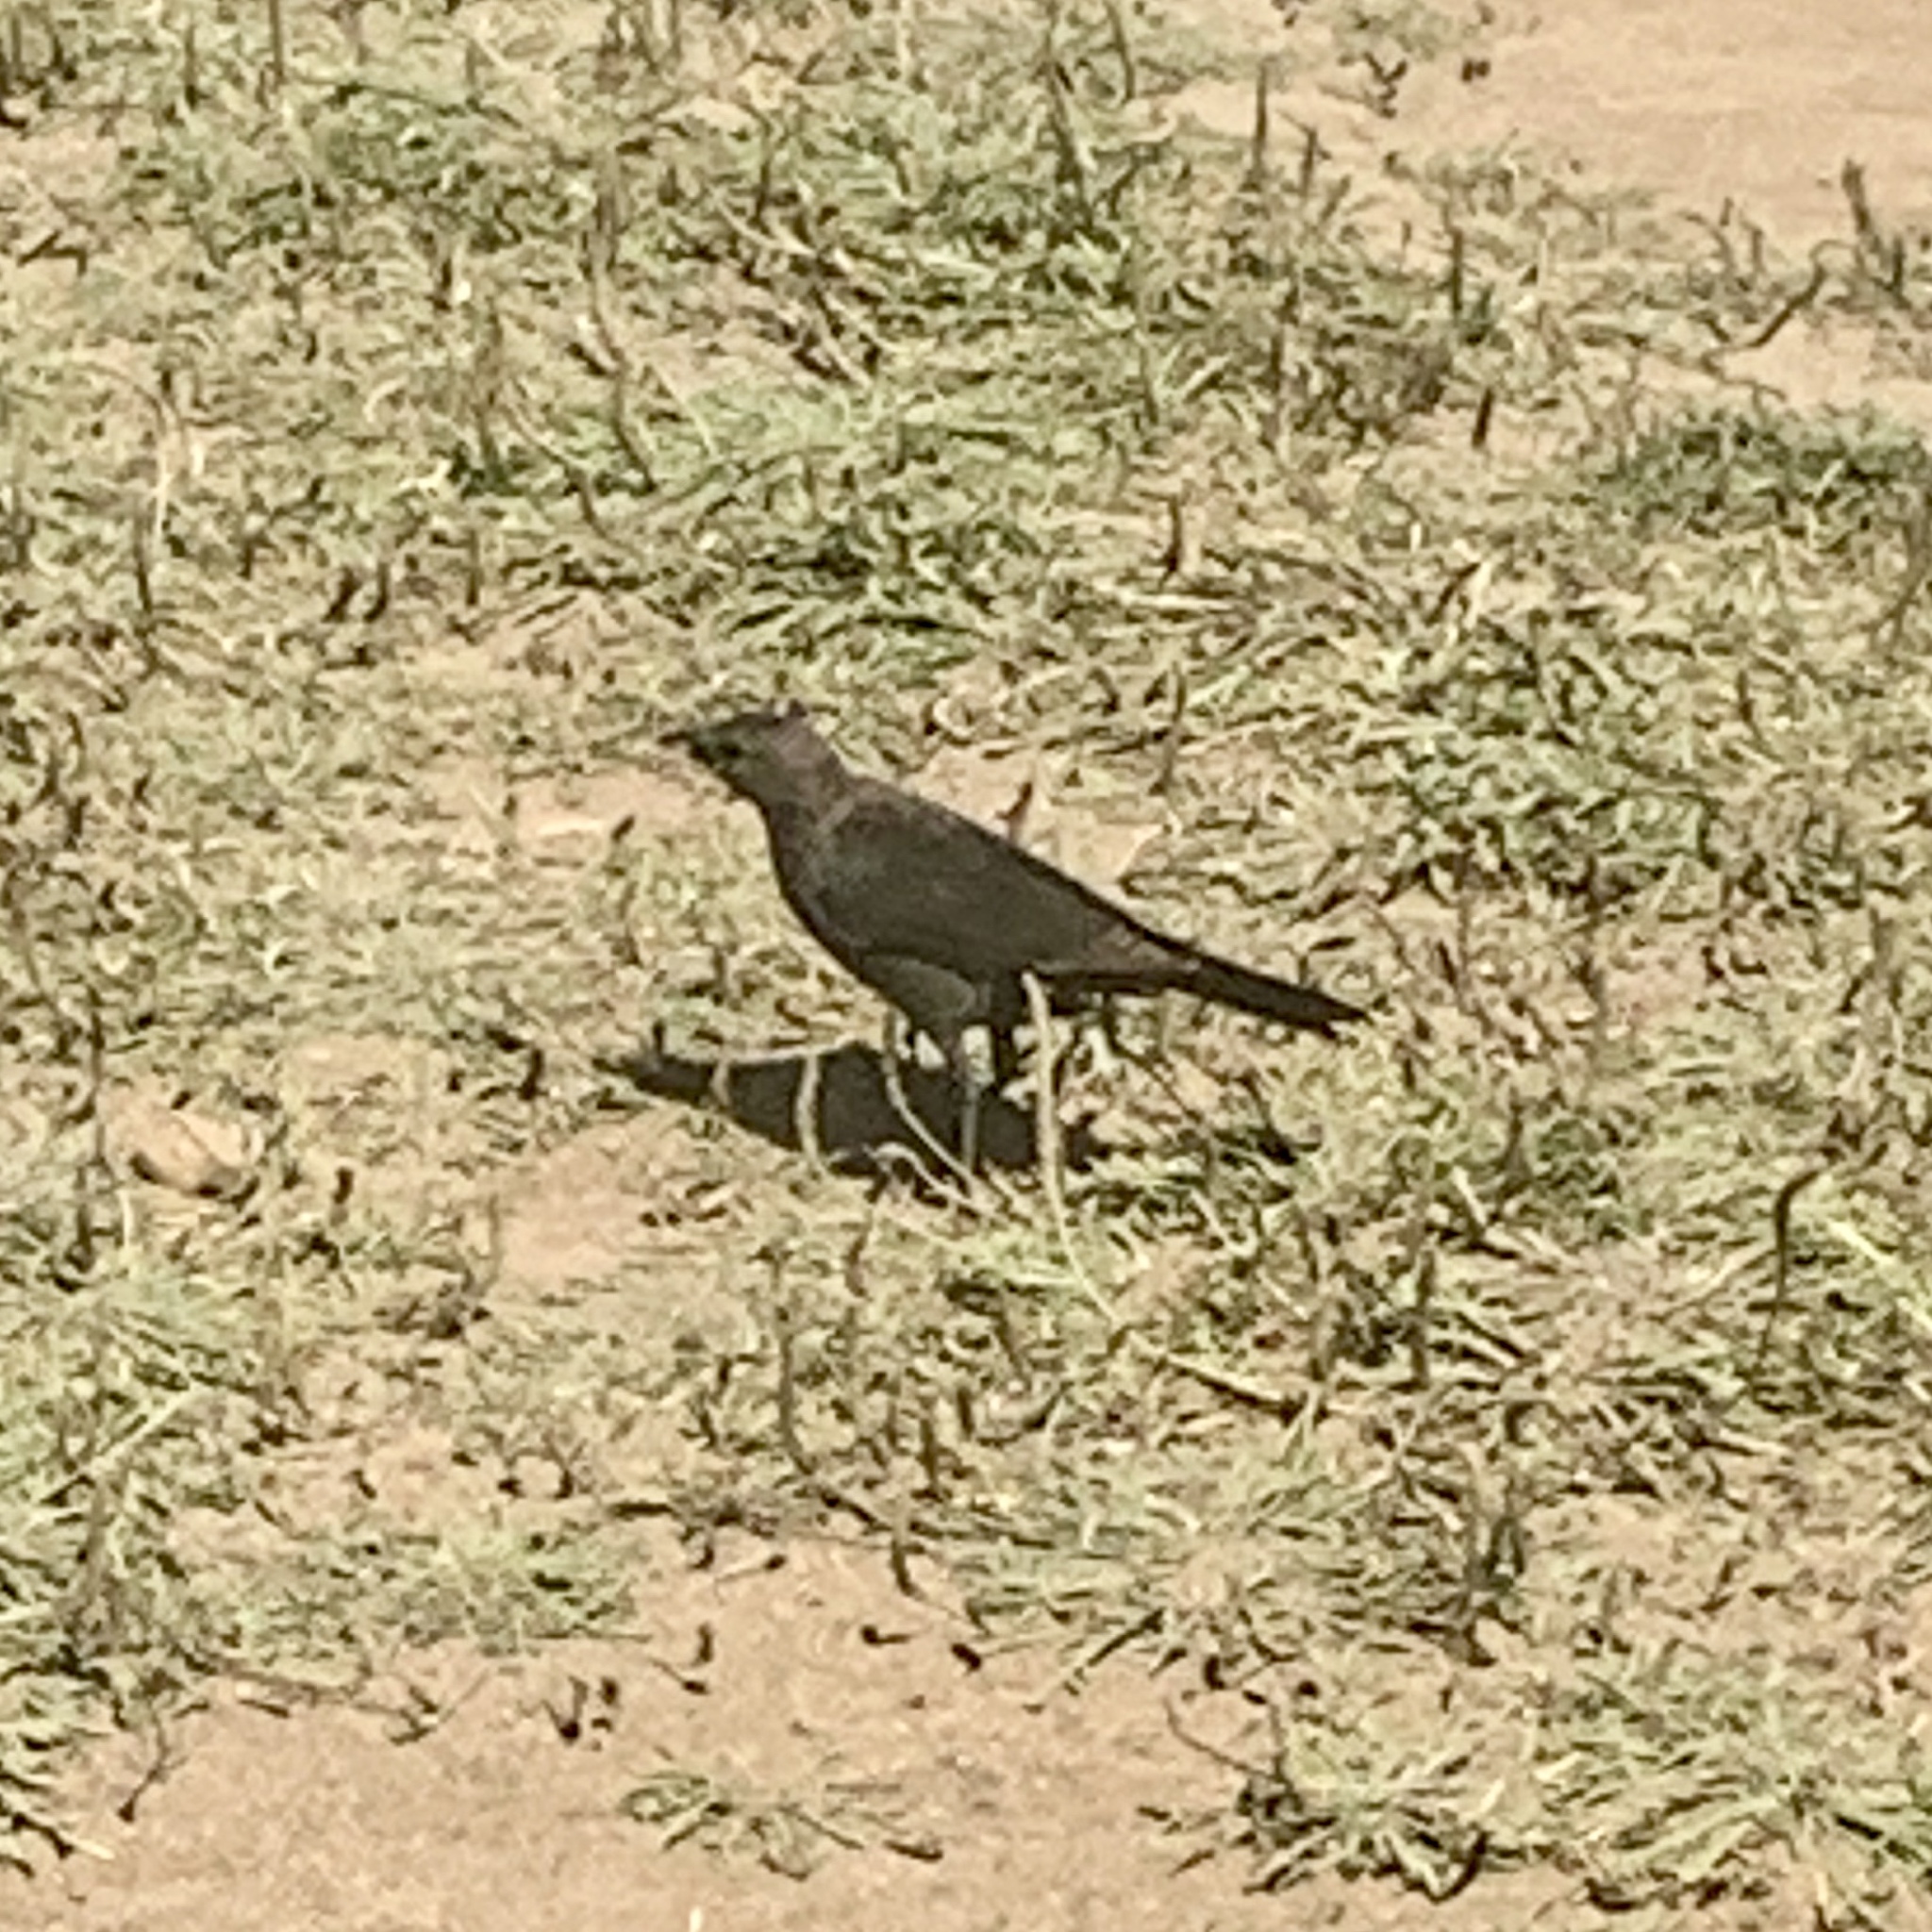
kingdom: Animalia
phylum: Chordata
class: Aves
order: Passeriformes
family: Icteridae
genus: Euphagus
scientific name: Euphagus cyanocephalus
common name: Brewer's blackbird
